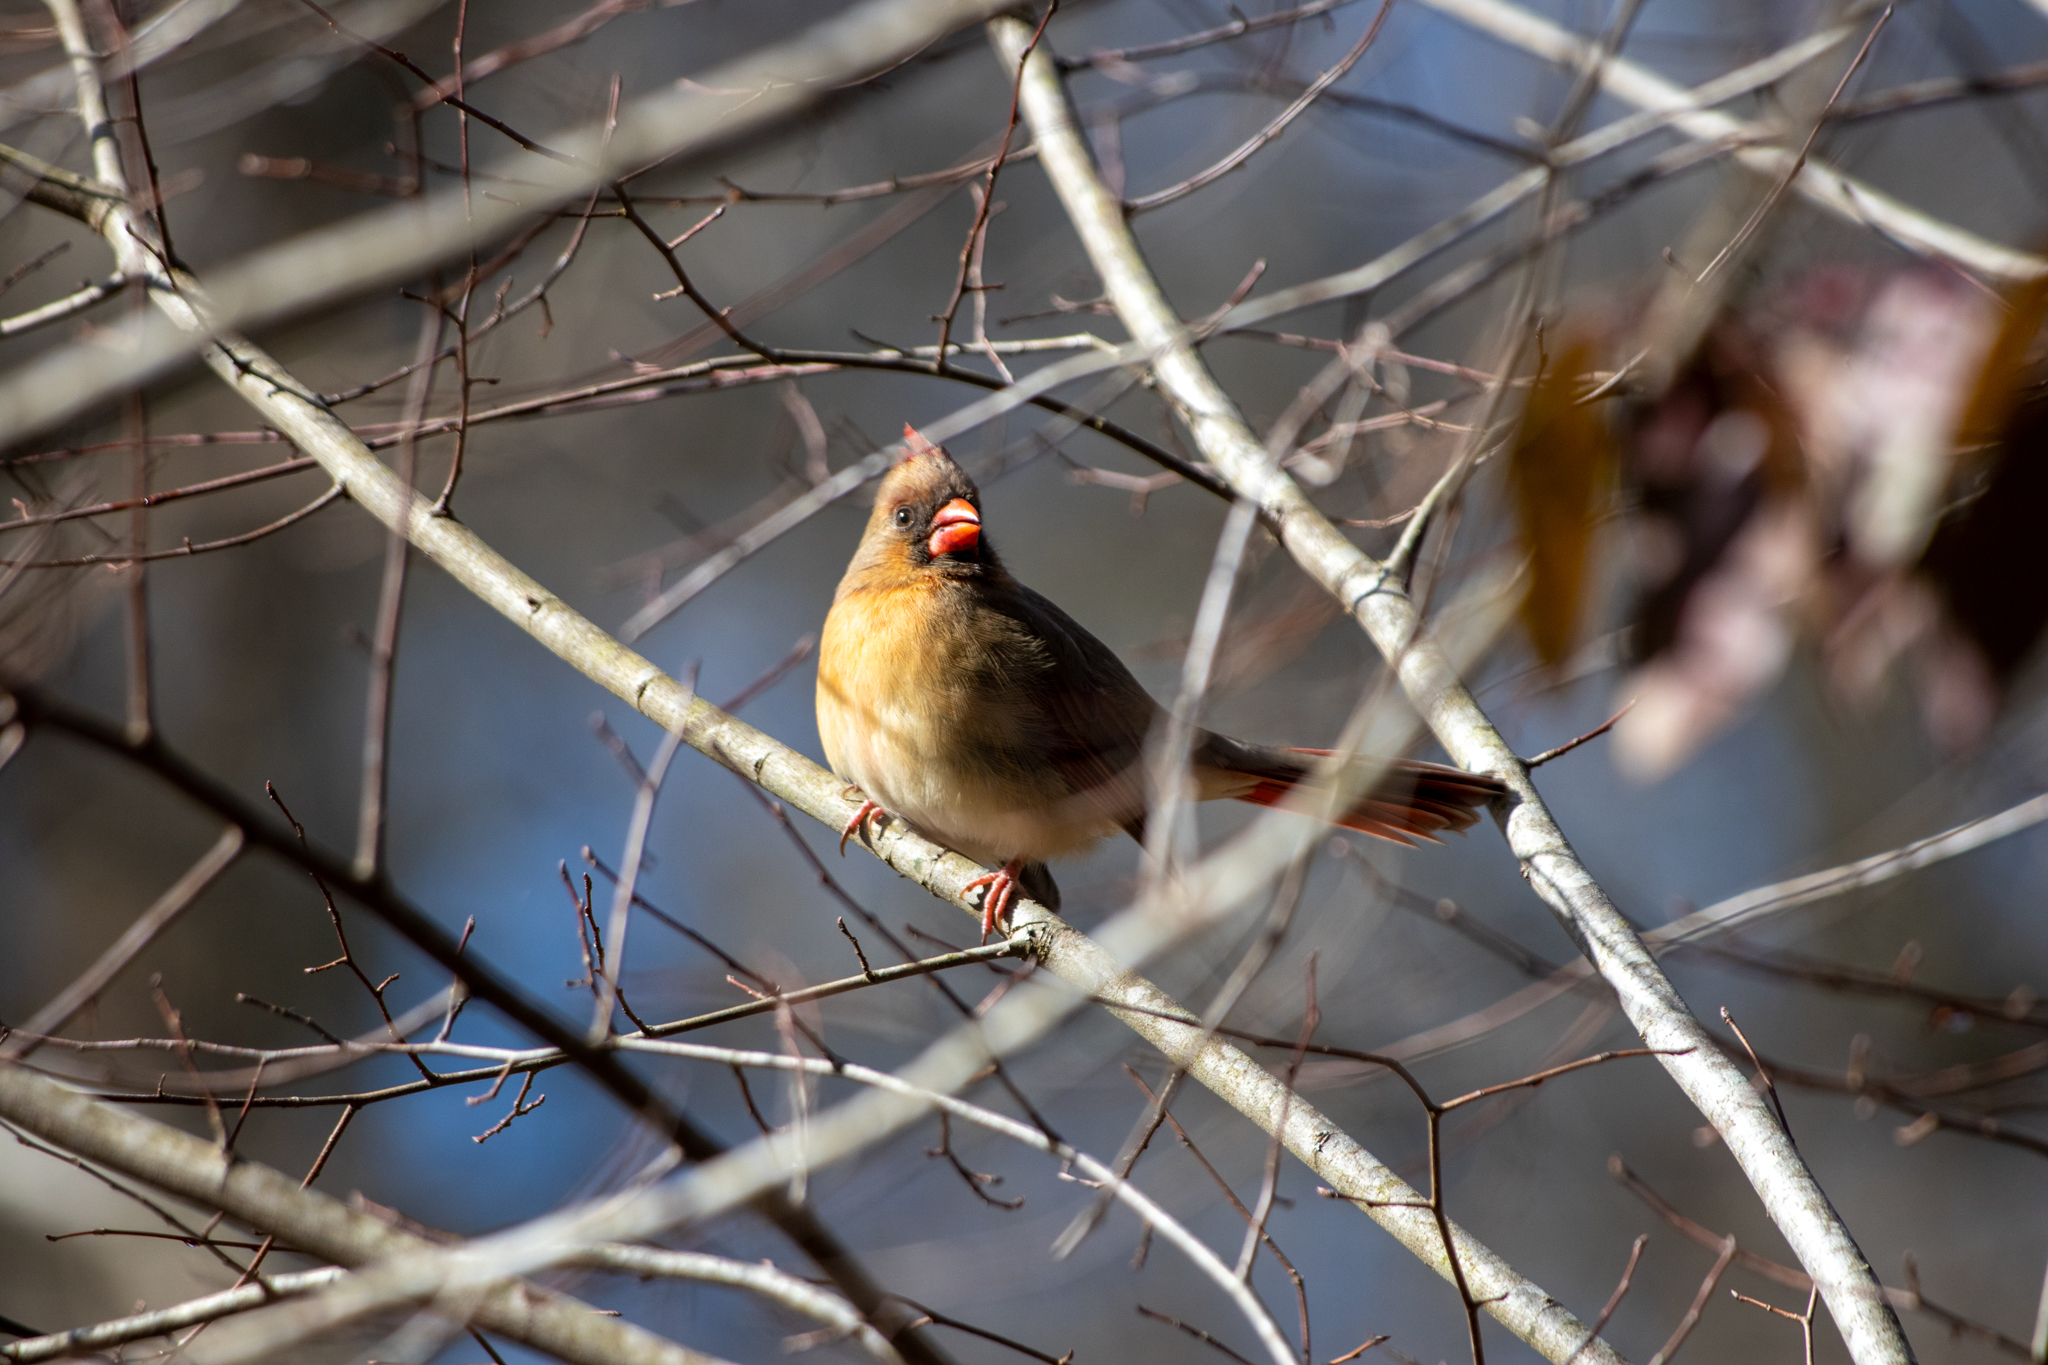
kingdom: Animalia
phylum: Chordata
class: Aves
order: Passeriformes
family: Cardinalidae
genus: Cardinalis
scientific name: Cardinalis cardinalis
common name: Northern cardinal
